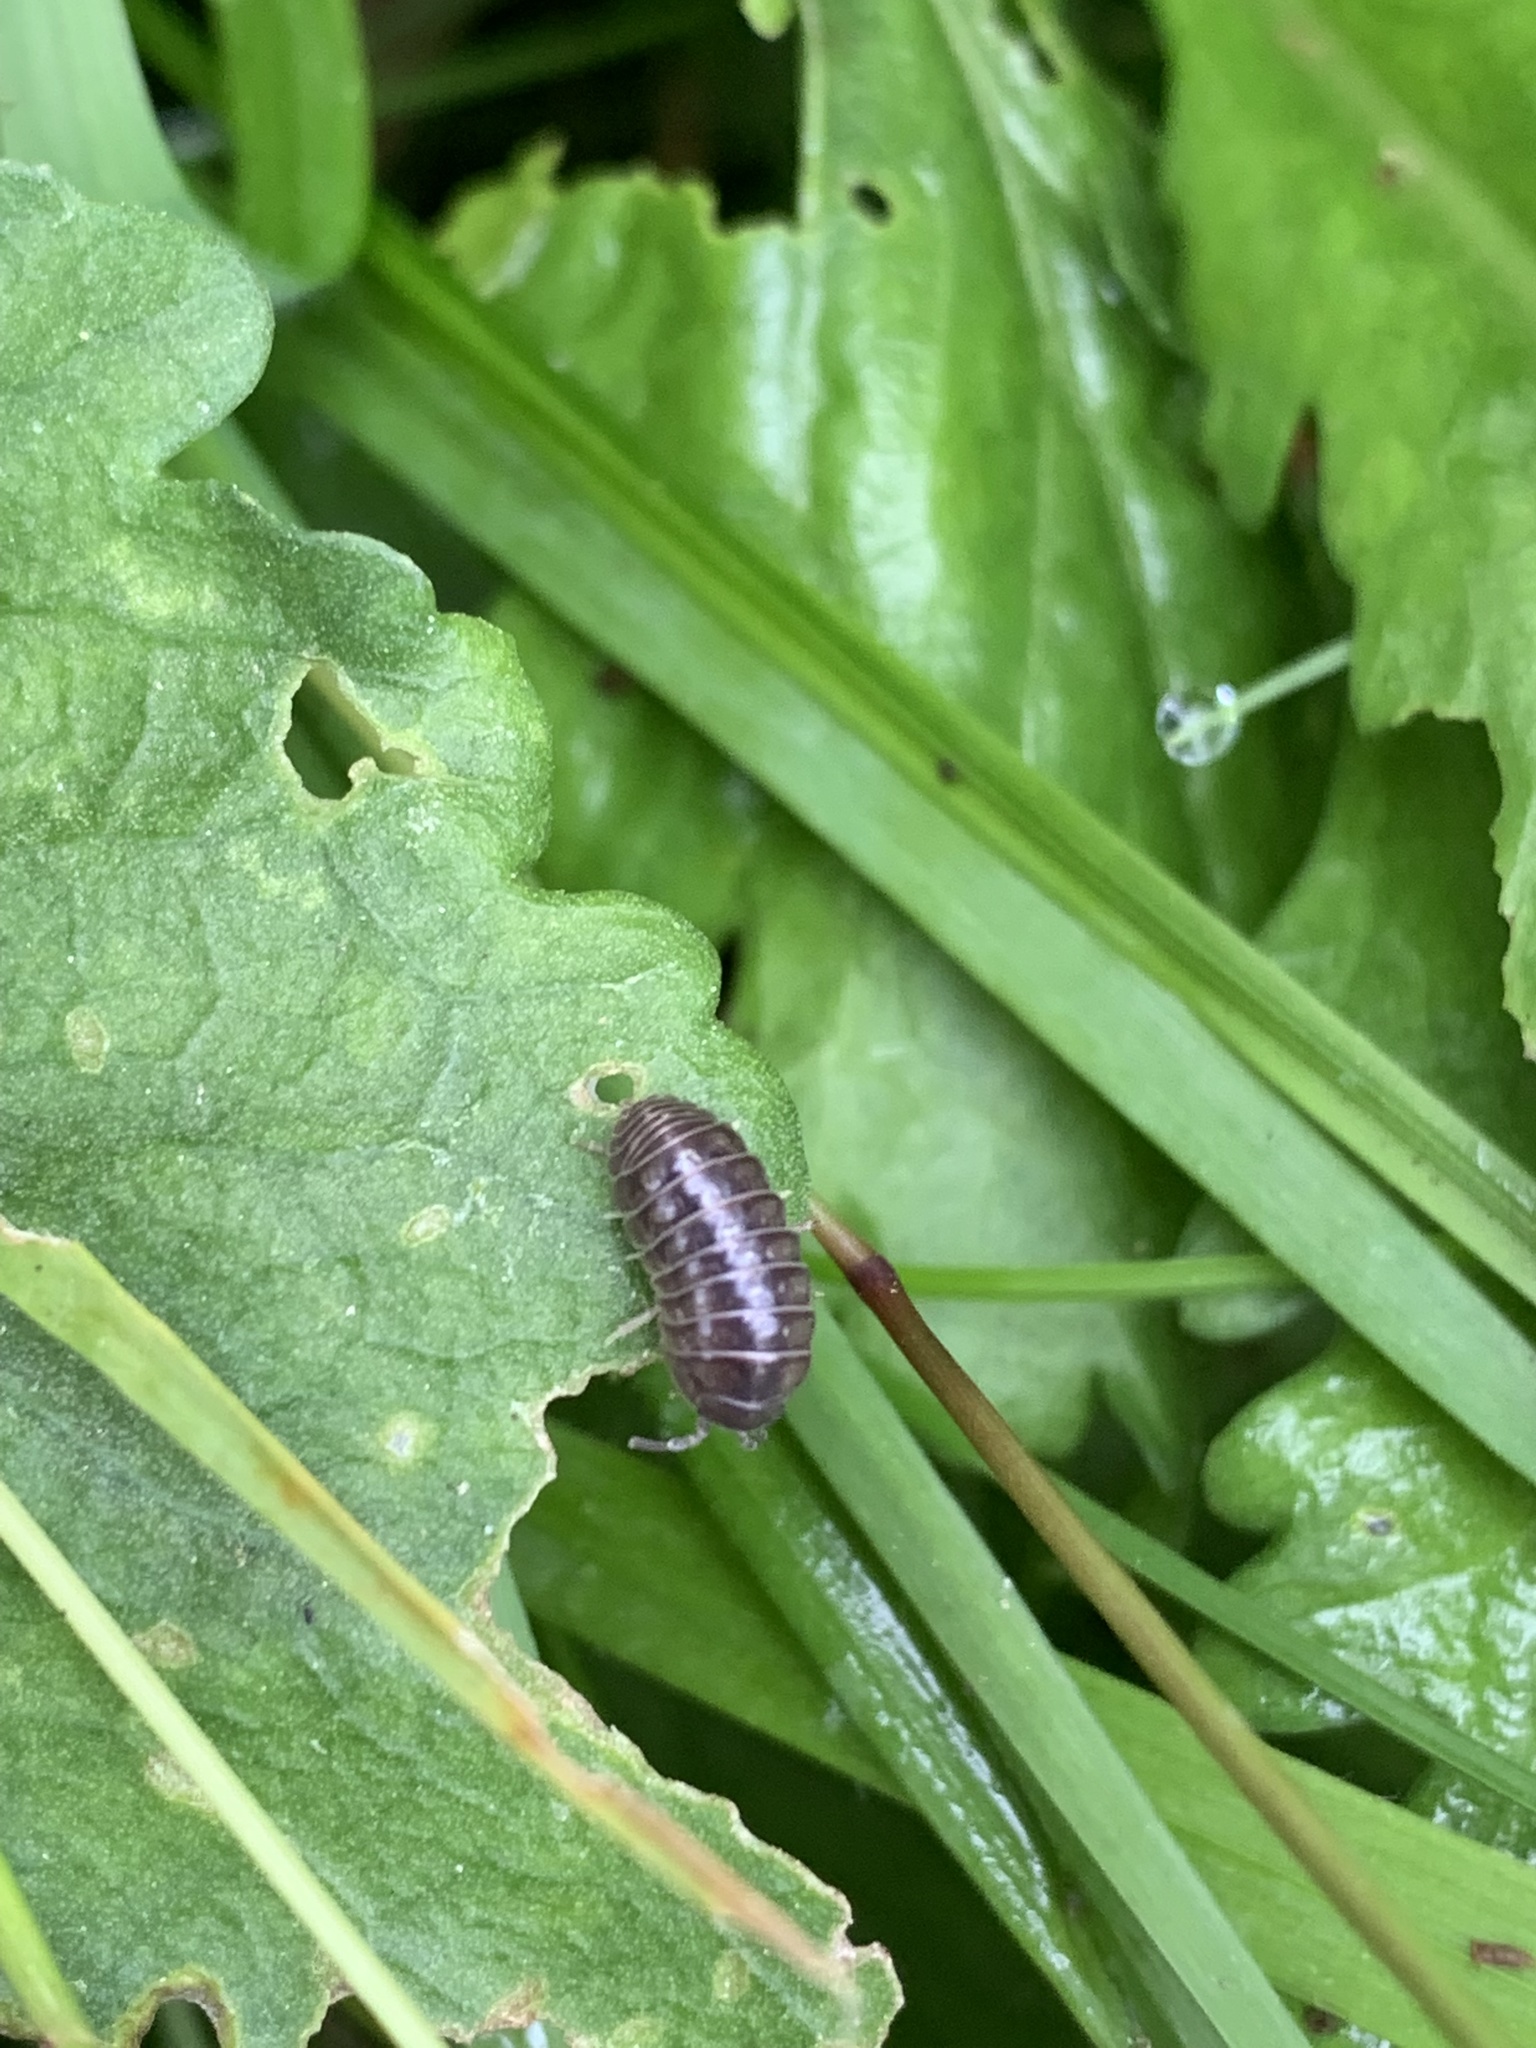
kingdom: Animalia
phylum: Arthropoda
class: Malacostraca
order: Isopoda
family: Armadillidiidae
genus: Armadillidium
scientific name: Armadillidium vulgare
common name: Common pill woodlouse
